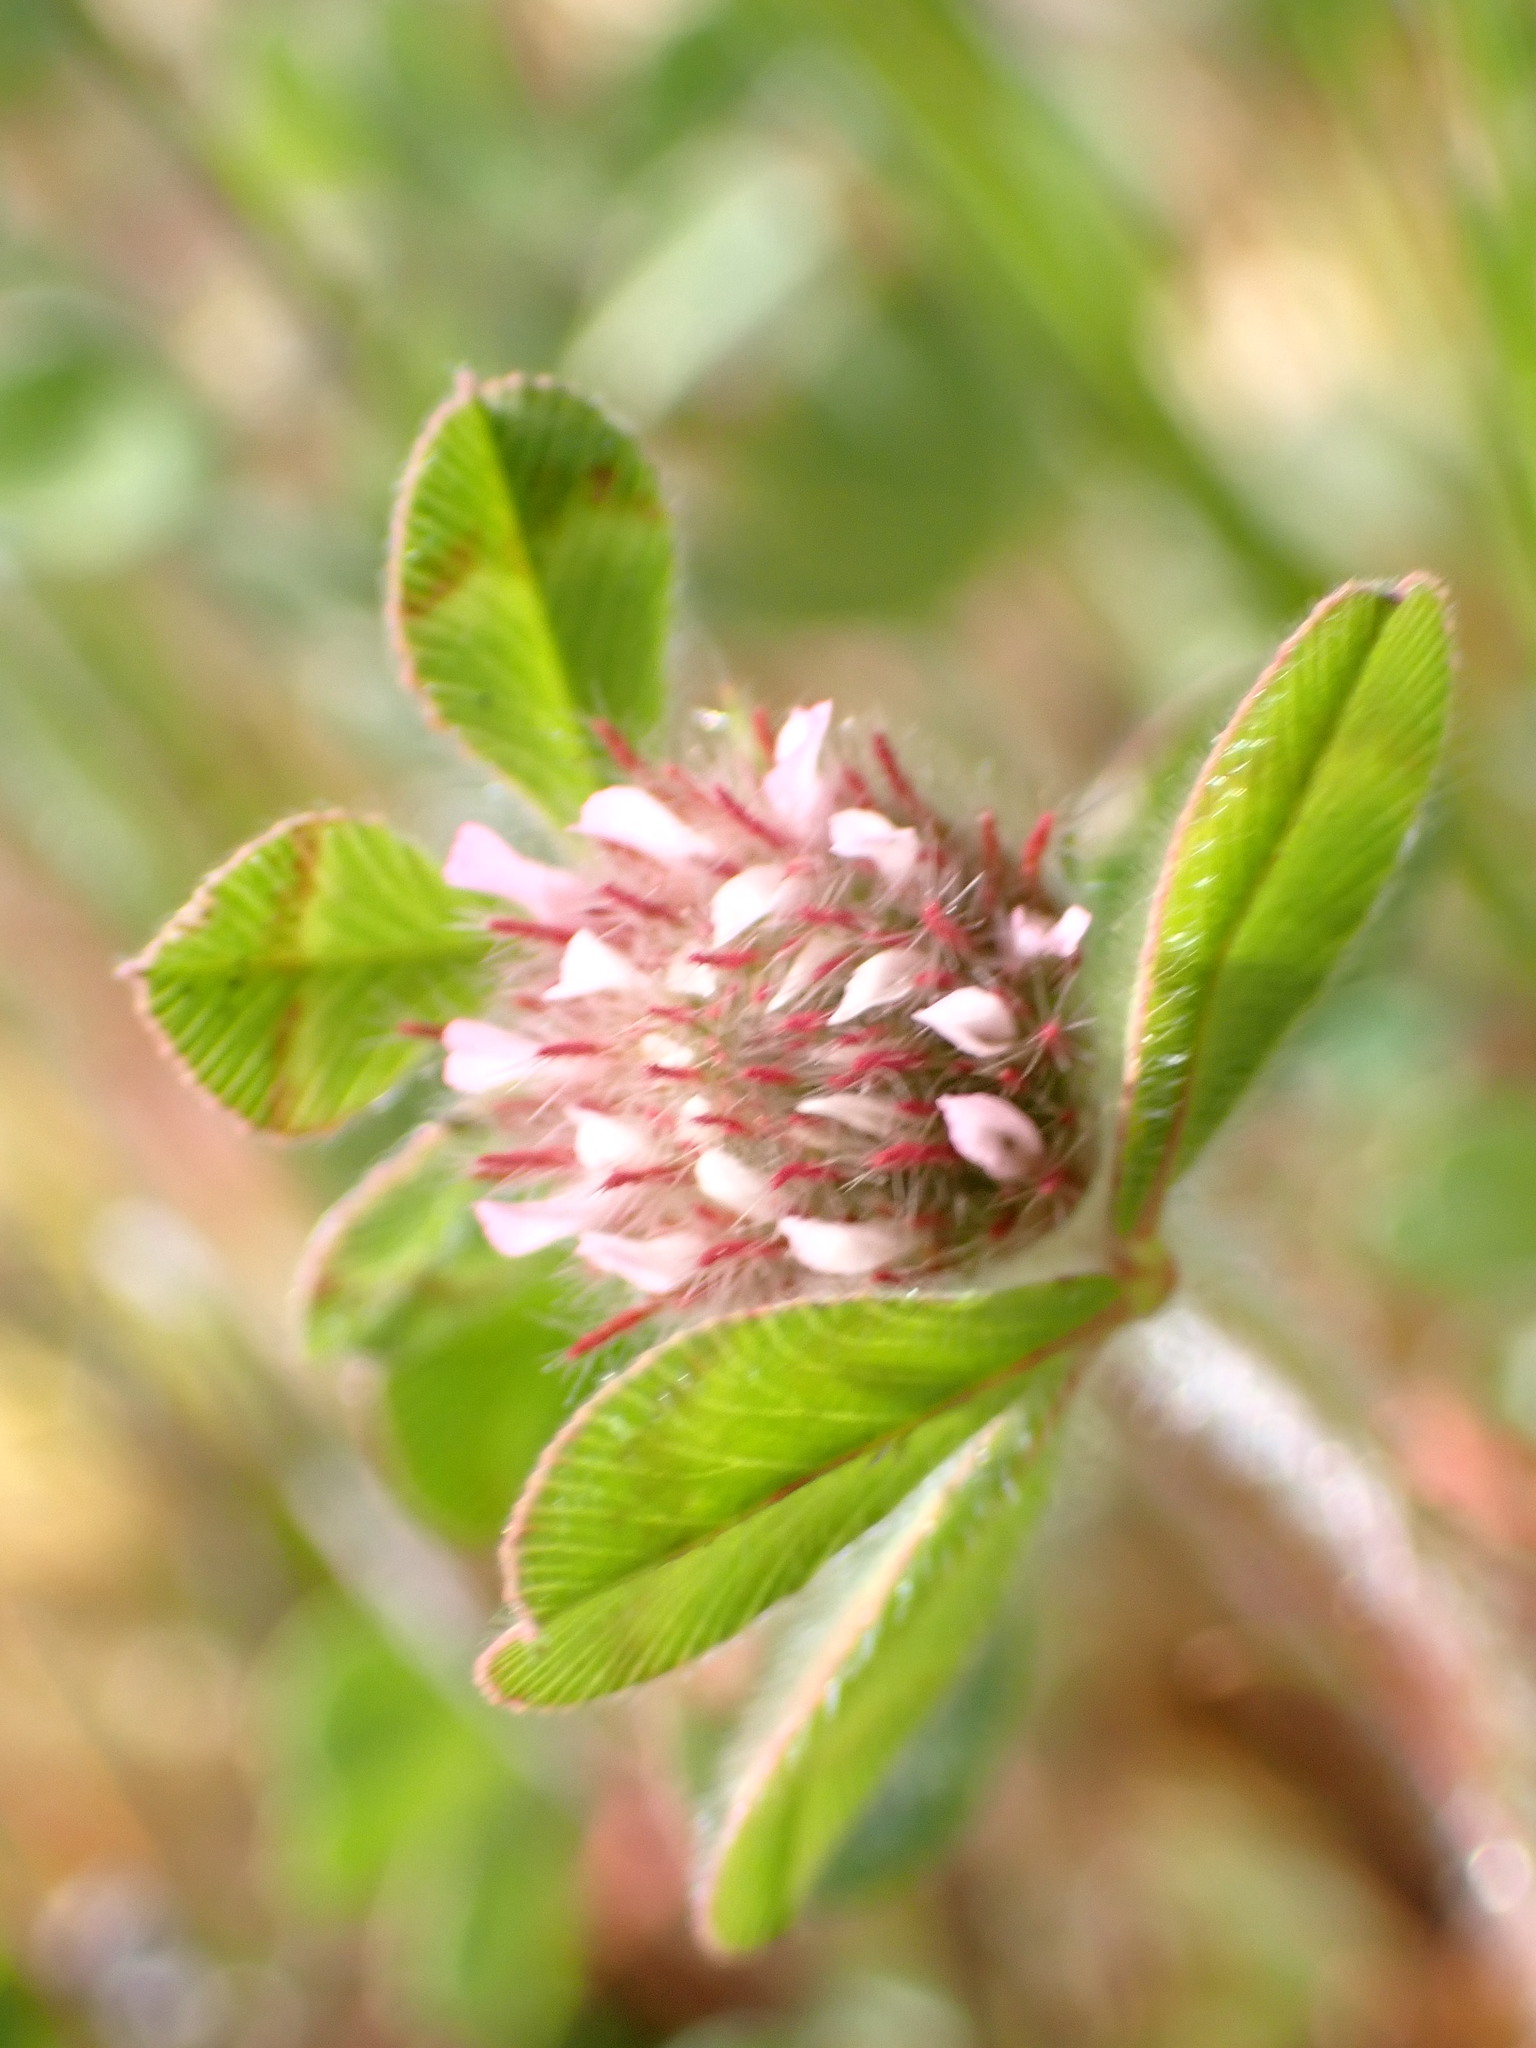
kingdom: Plantae
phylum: Tracheophyta
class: Magnoliopsida
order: Fabales
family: Fabaceae
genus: Trifolium
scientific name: Trifolium hirtum
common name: Rose clover
